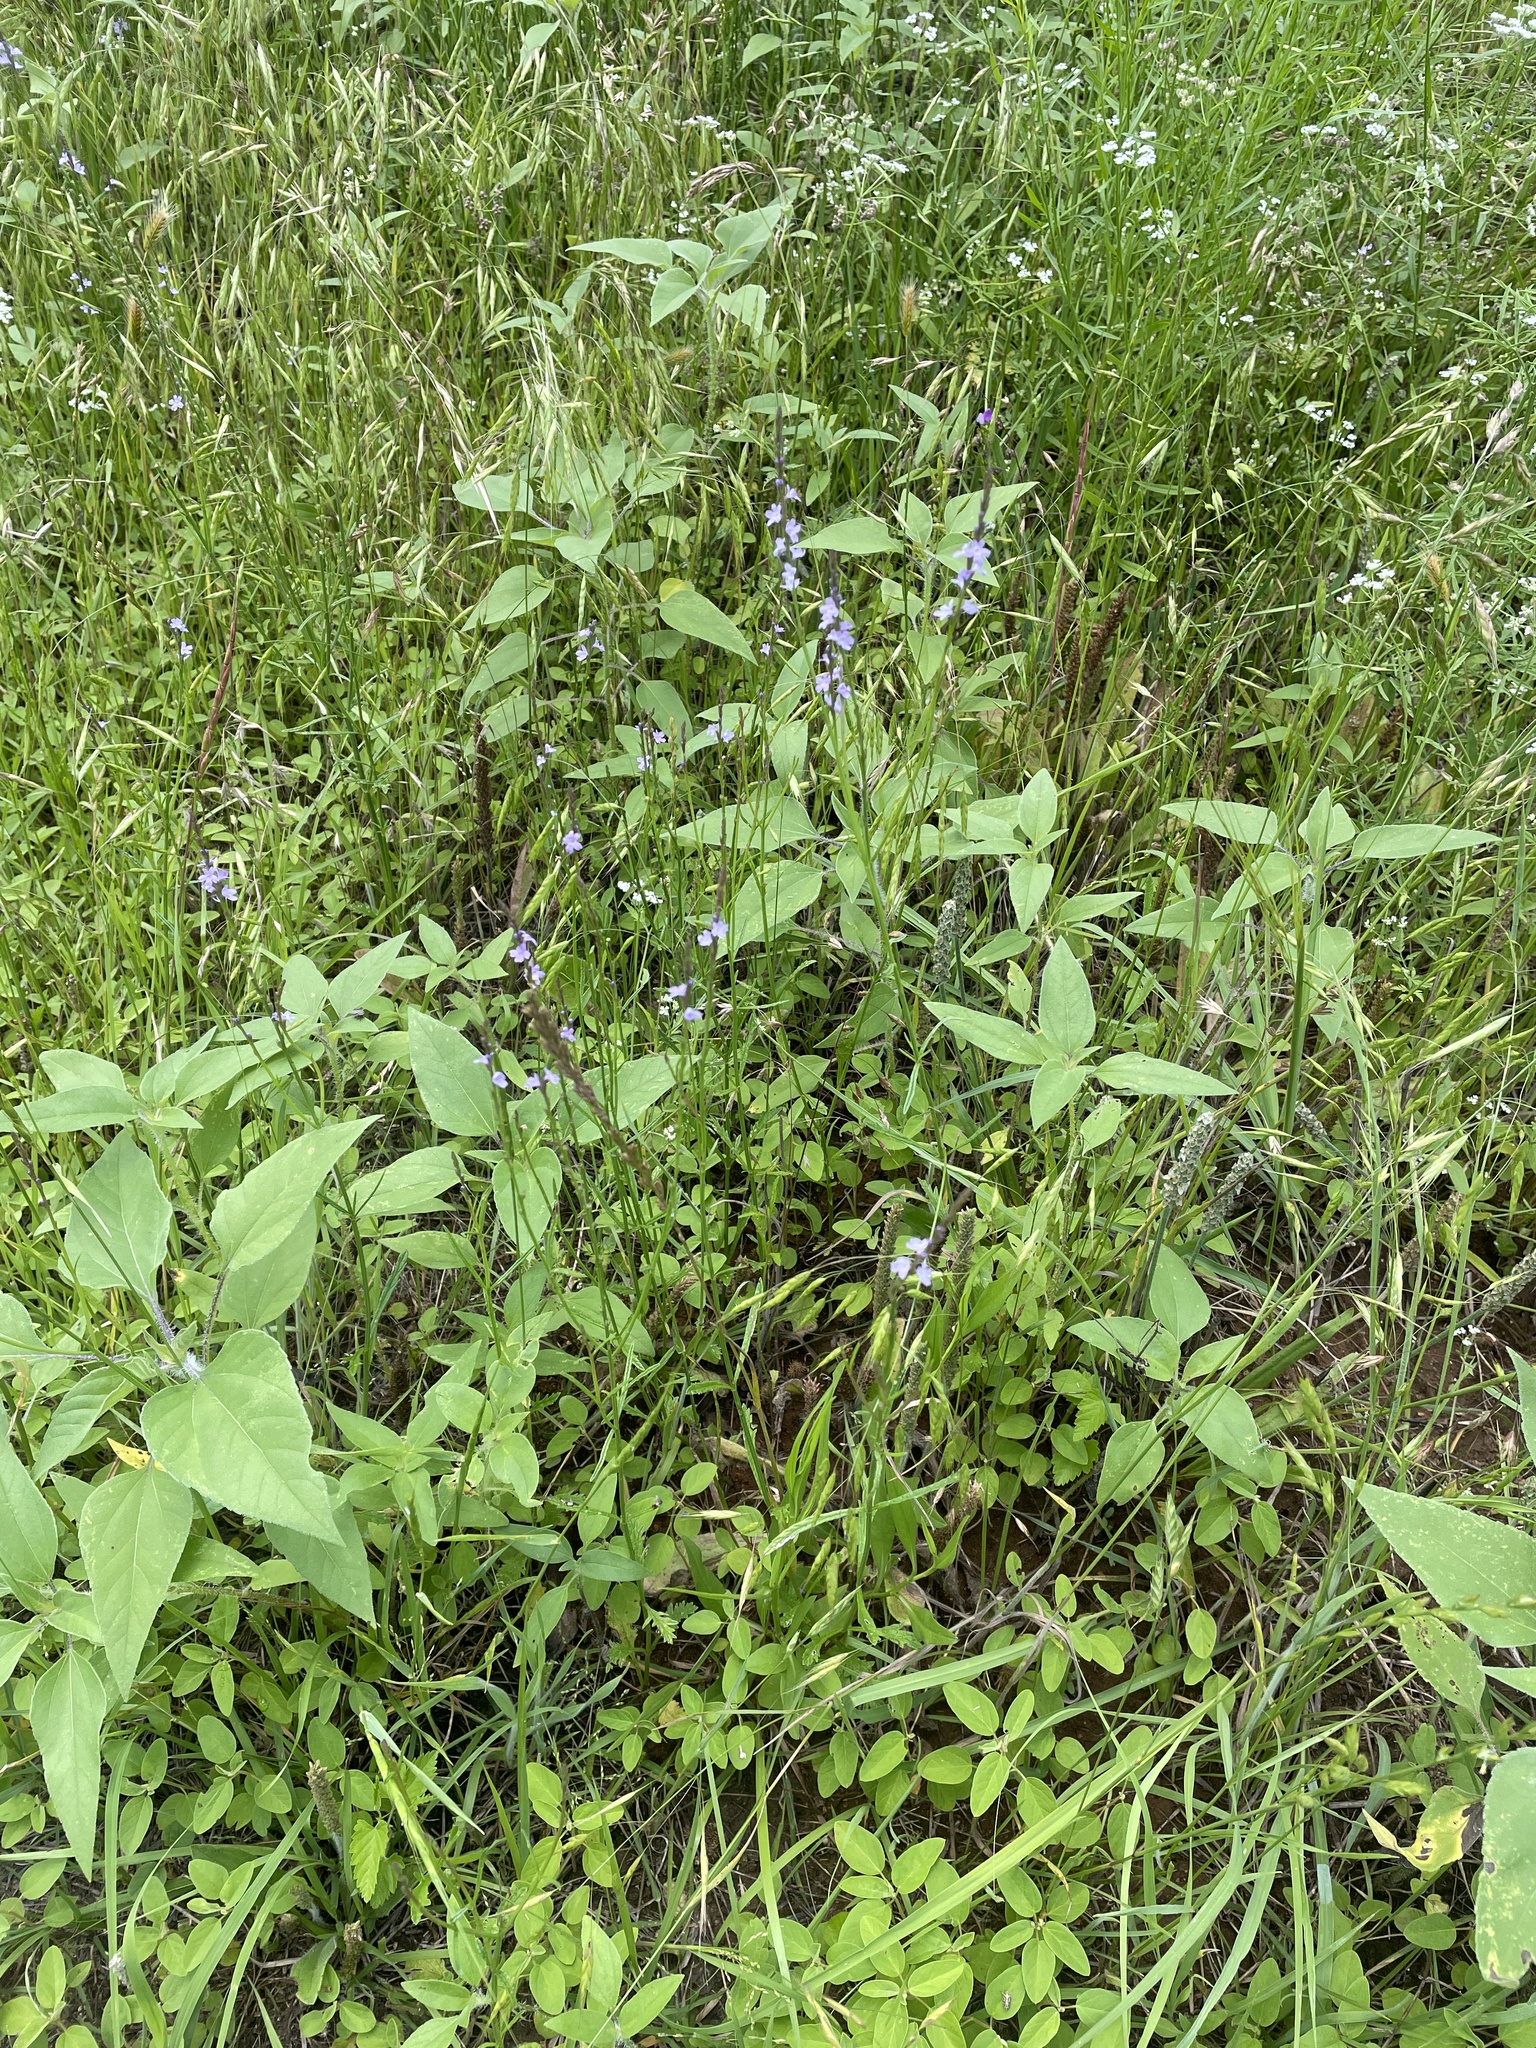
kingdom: Plantae
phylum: Tracheophyta
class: Magnoliopsida
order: Lamiales
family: Verbenaceae
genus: Verbena
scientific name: Verbena halei
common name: Texas vervain
